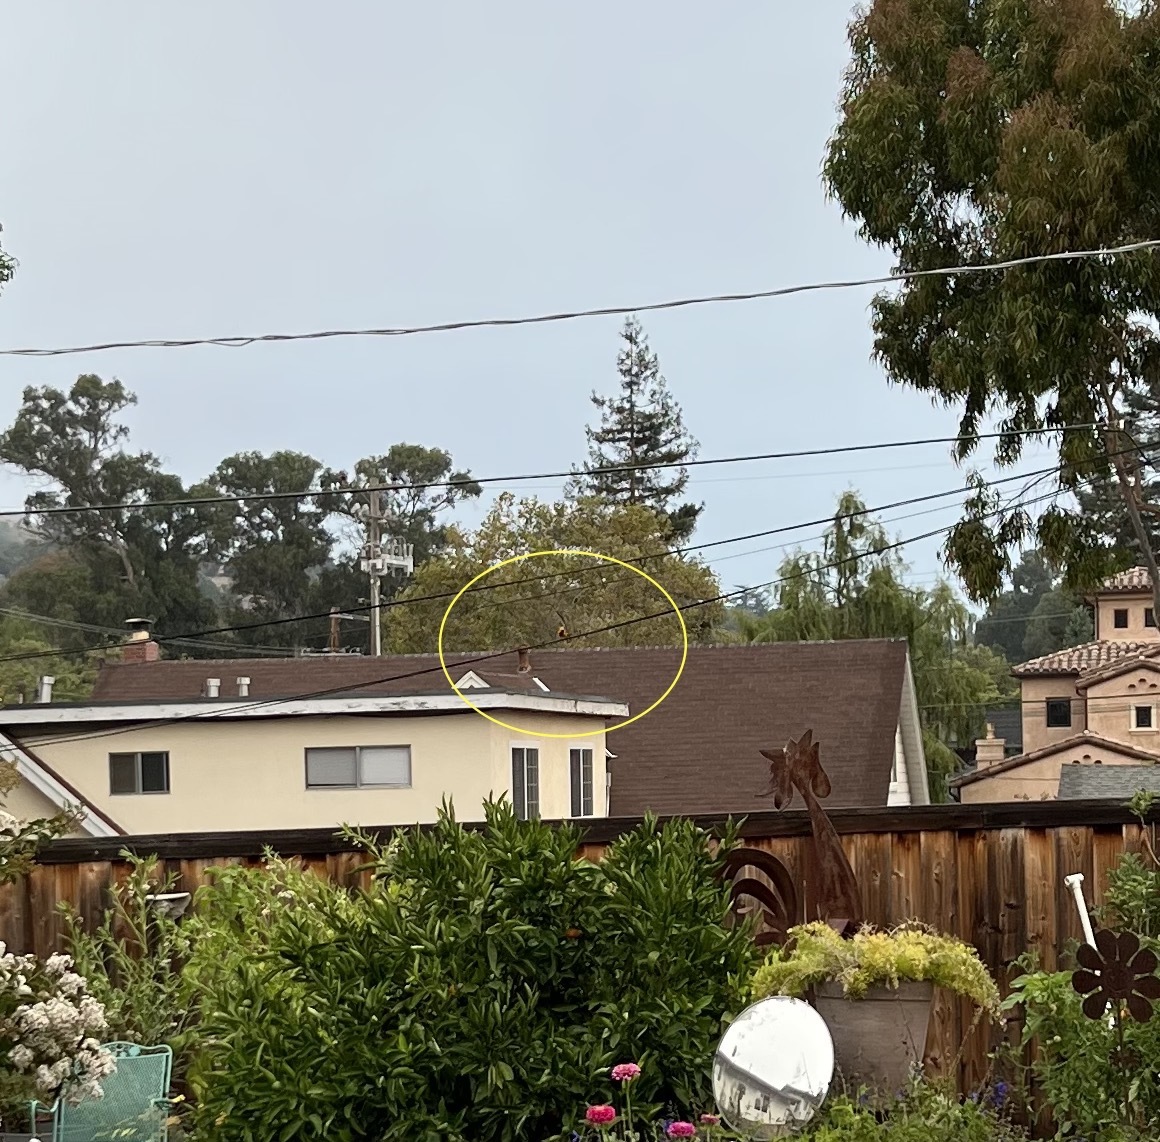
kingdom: Animalia
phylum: Chordata
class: Aves
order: Passeriformes
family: Icteridae
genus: Icterus
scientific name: Icterus cucullatus
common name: Hooded oriole
